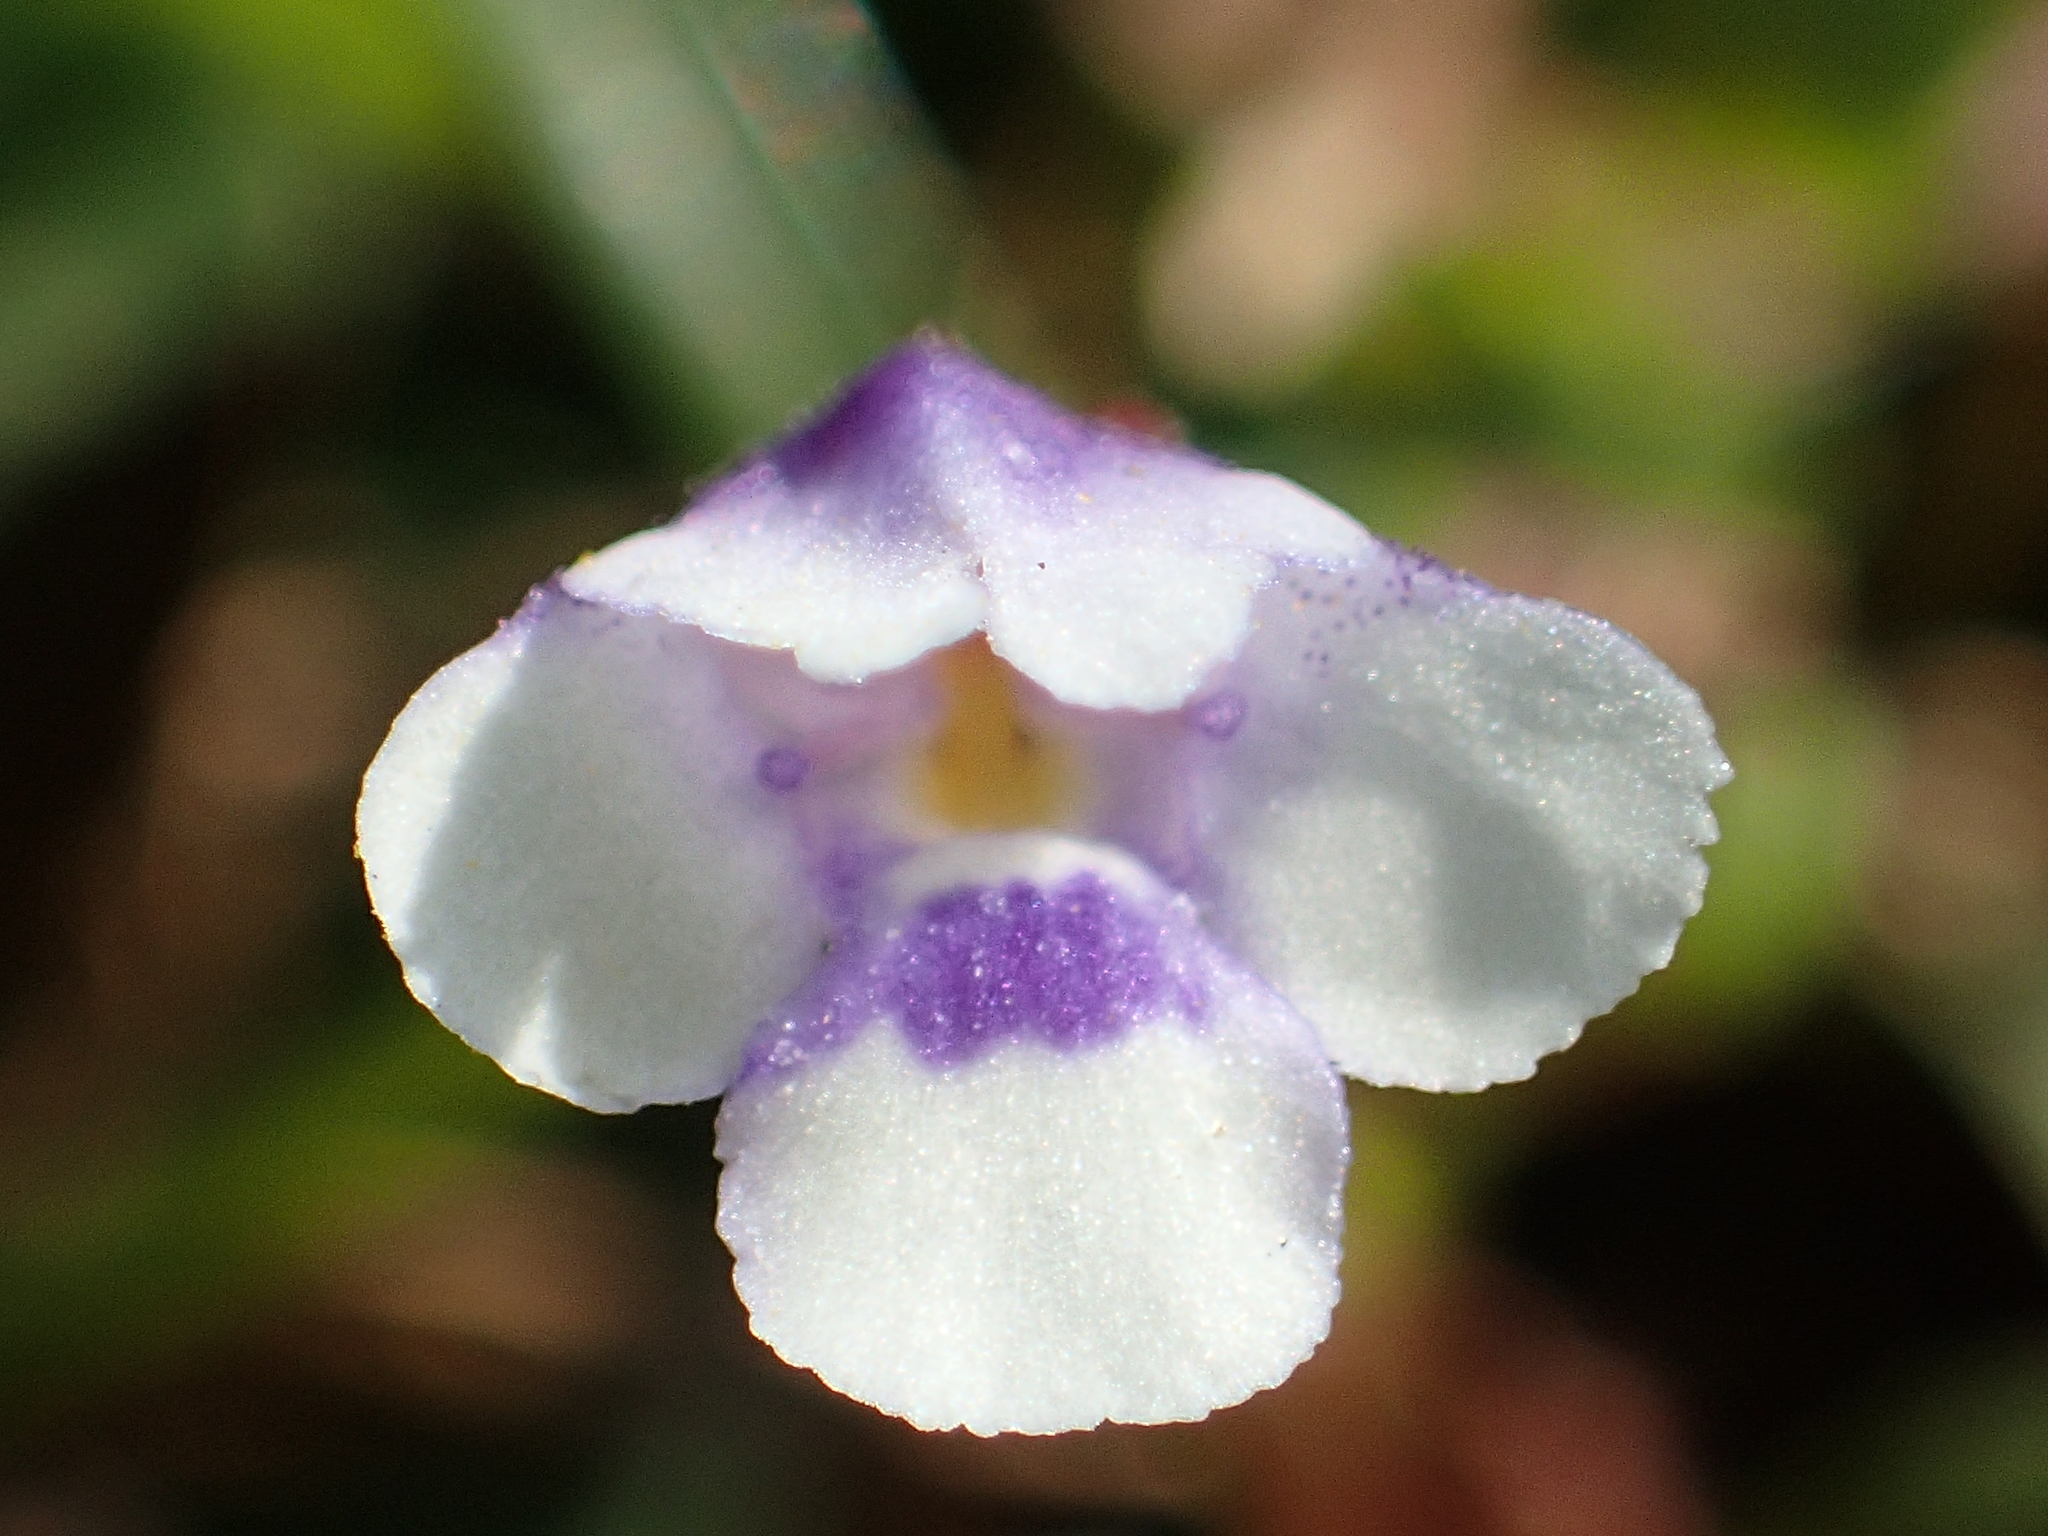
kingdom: Plantae
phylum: Tracheophyta
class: Magnoliopsida
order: Lamiales
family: Linderniaceae
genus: Torenia
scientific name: Torenia crustacea
